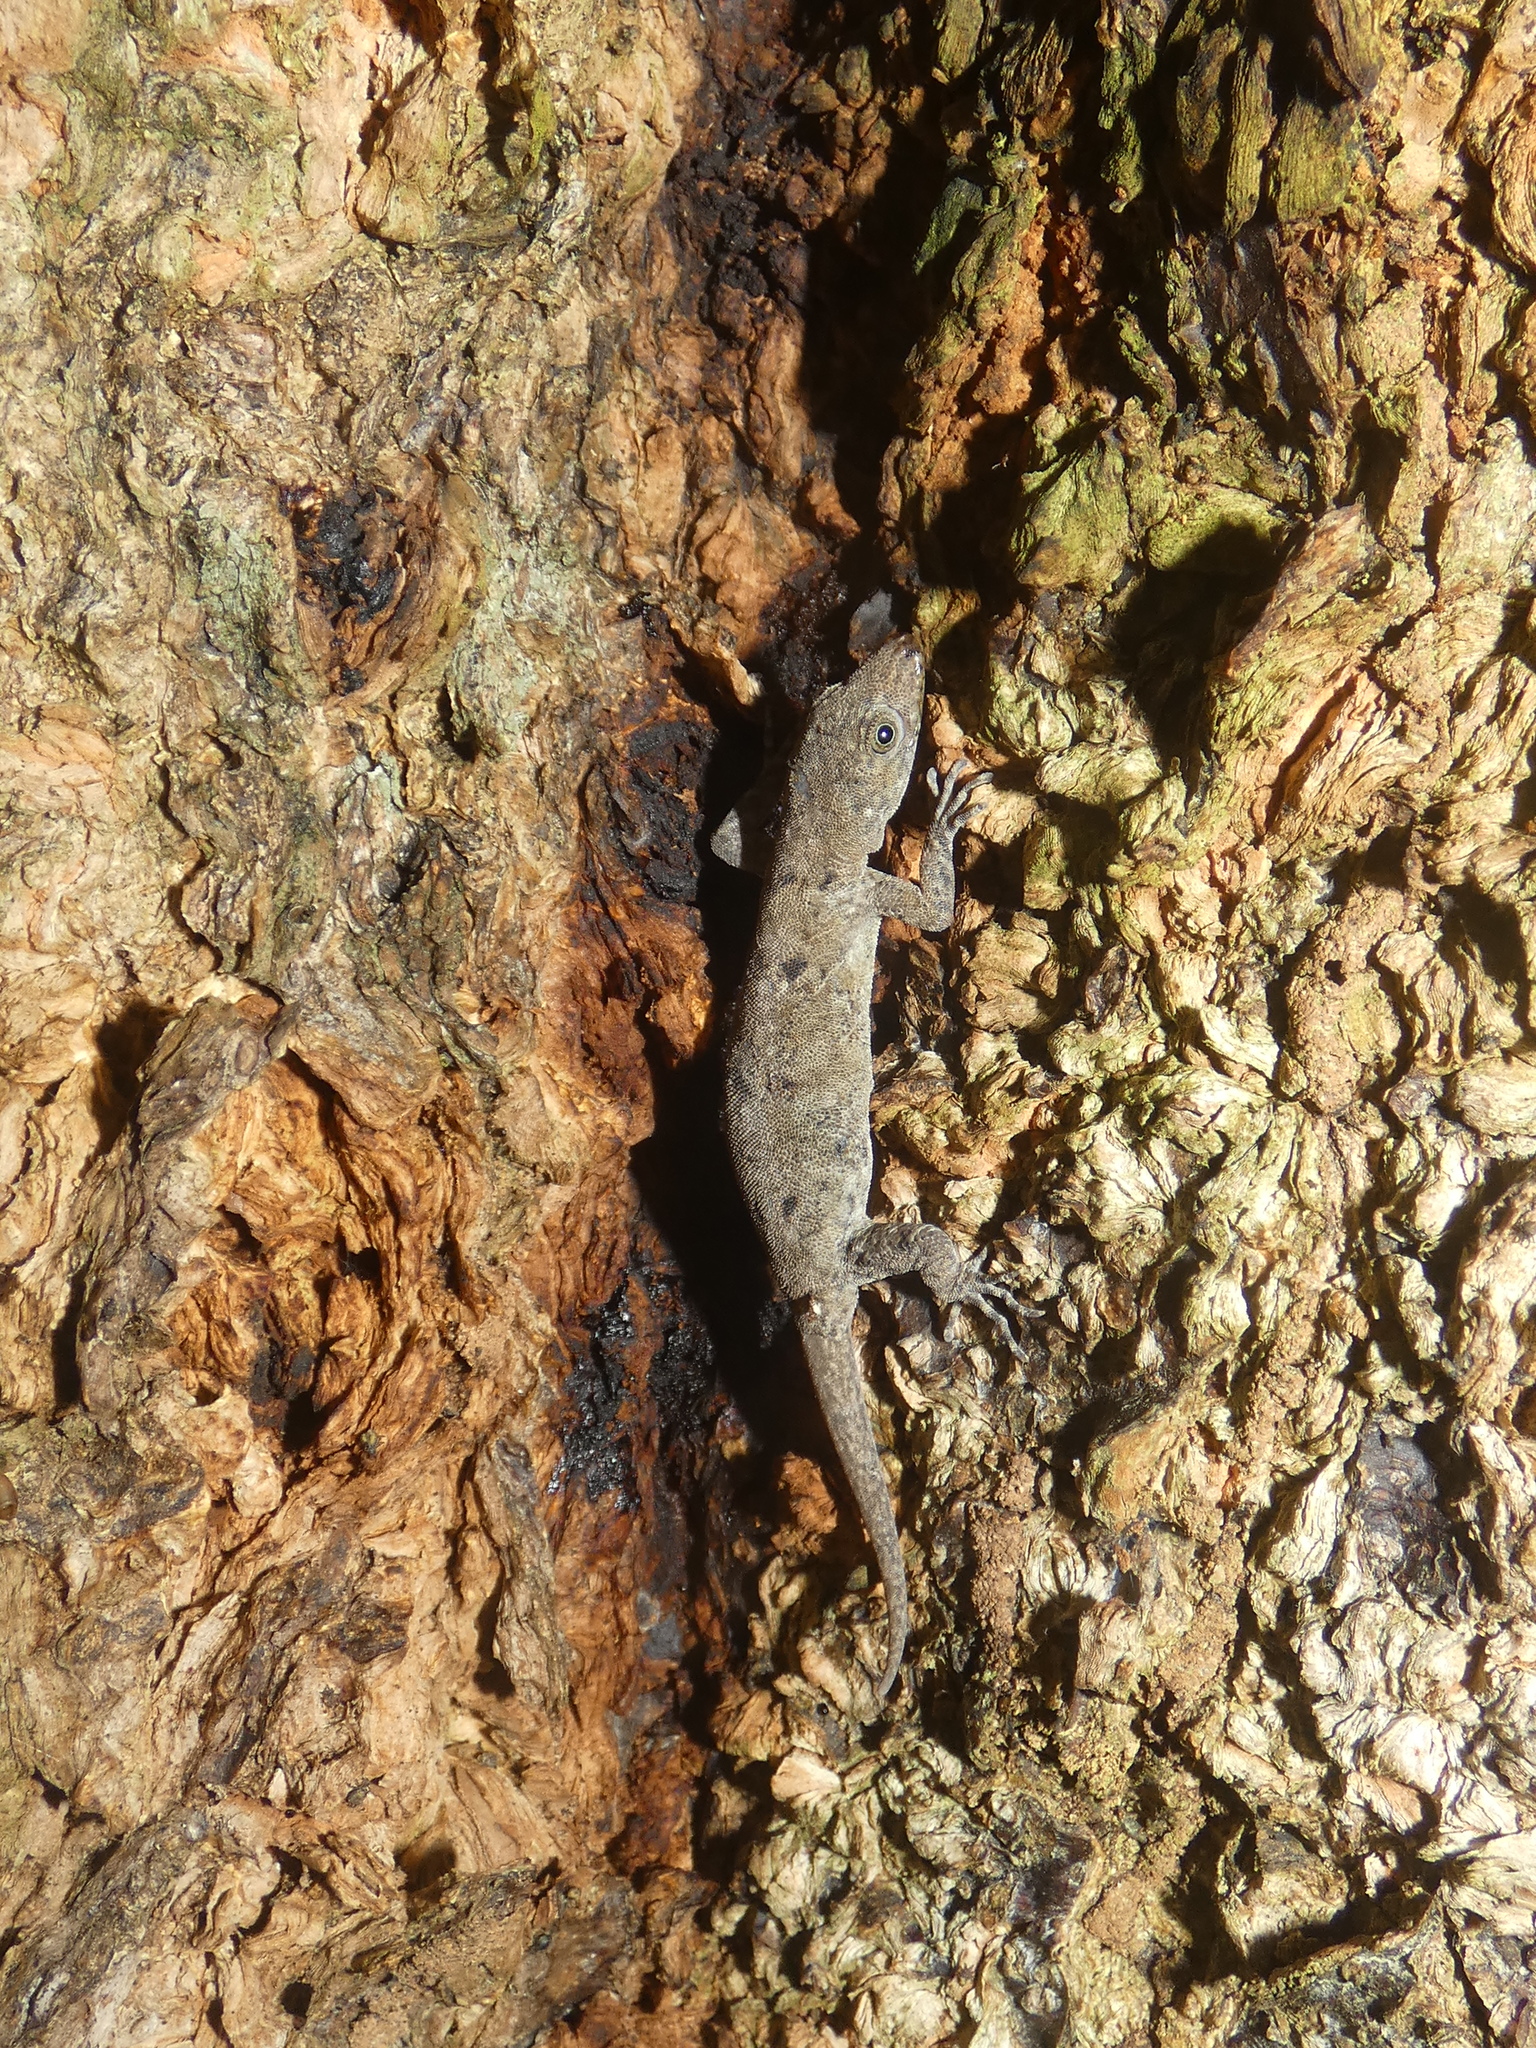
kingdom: Animalia
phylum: Chordata
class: Squamata
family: Sphaerodactylidae
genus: Gonatodes
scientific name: Gonatodes albogularis
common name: Yellow-headed gecko
